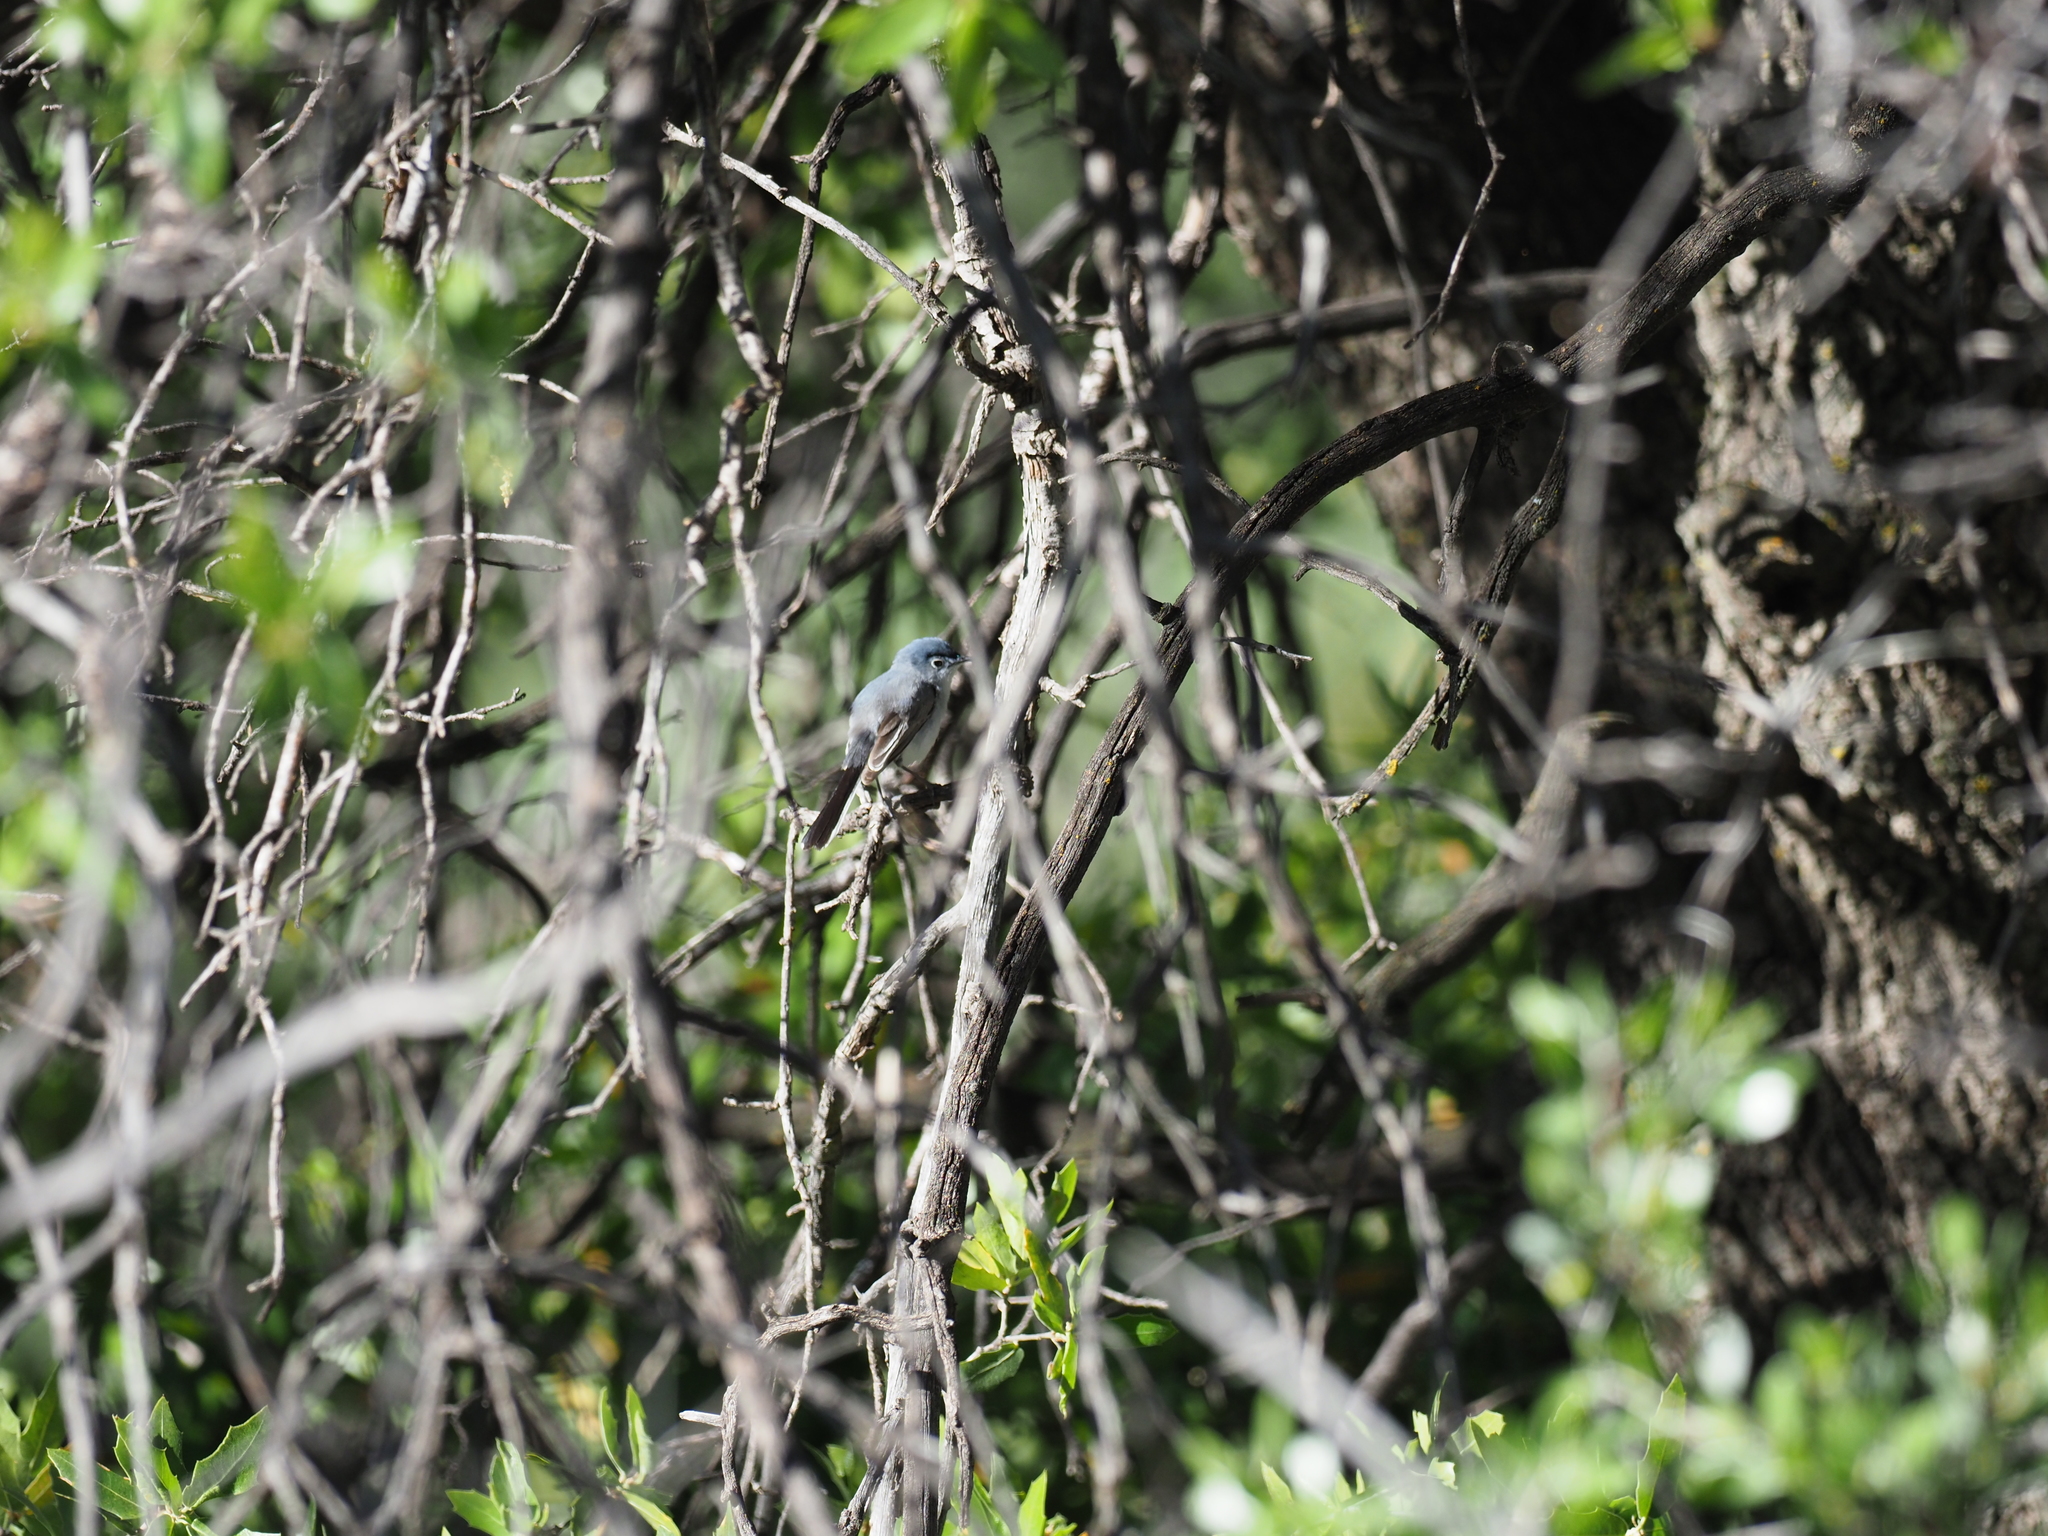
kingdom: Animalia
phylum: Chordata
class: Aves
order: Passeriformes
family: Polioptilidae
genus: Polioptila
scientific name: Polioptila caerulea
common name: Blue-gray gnatcatcher
